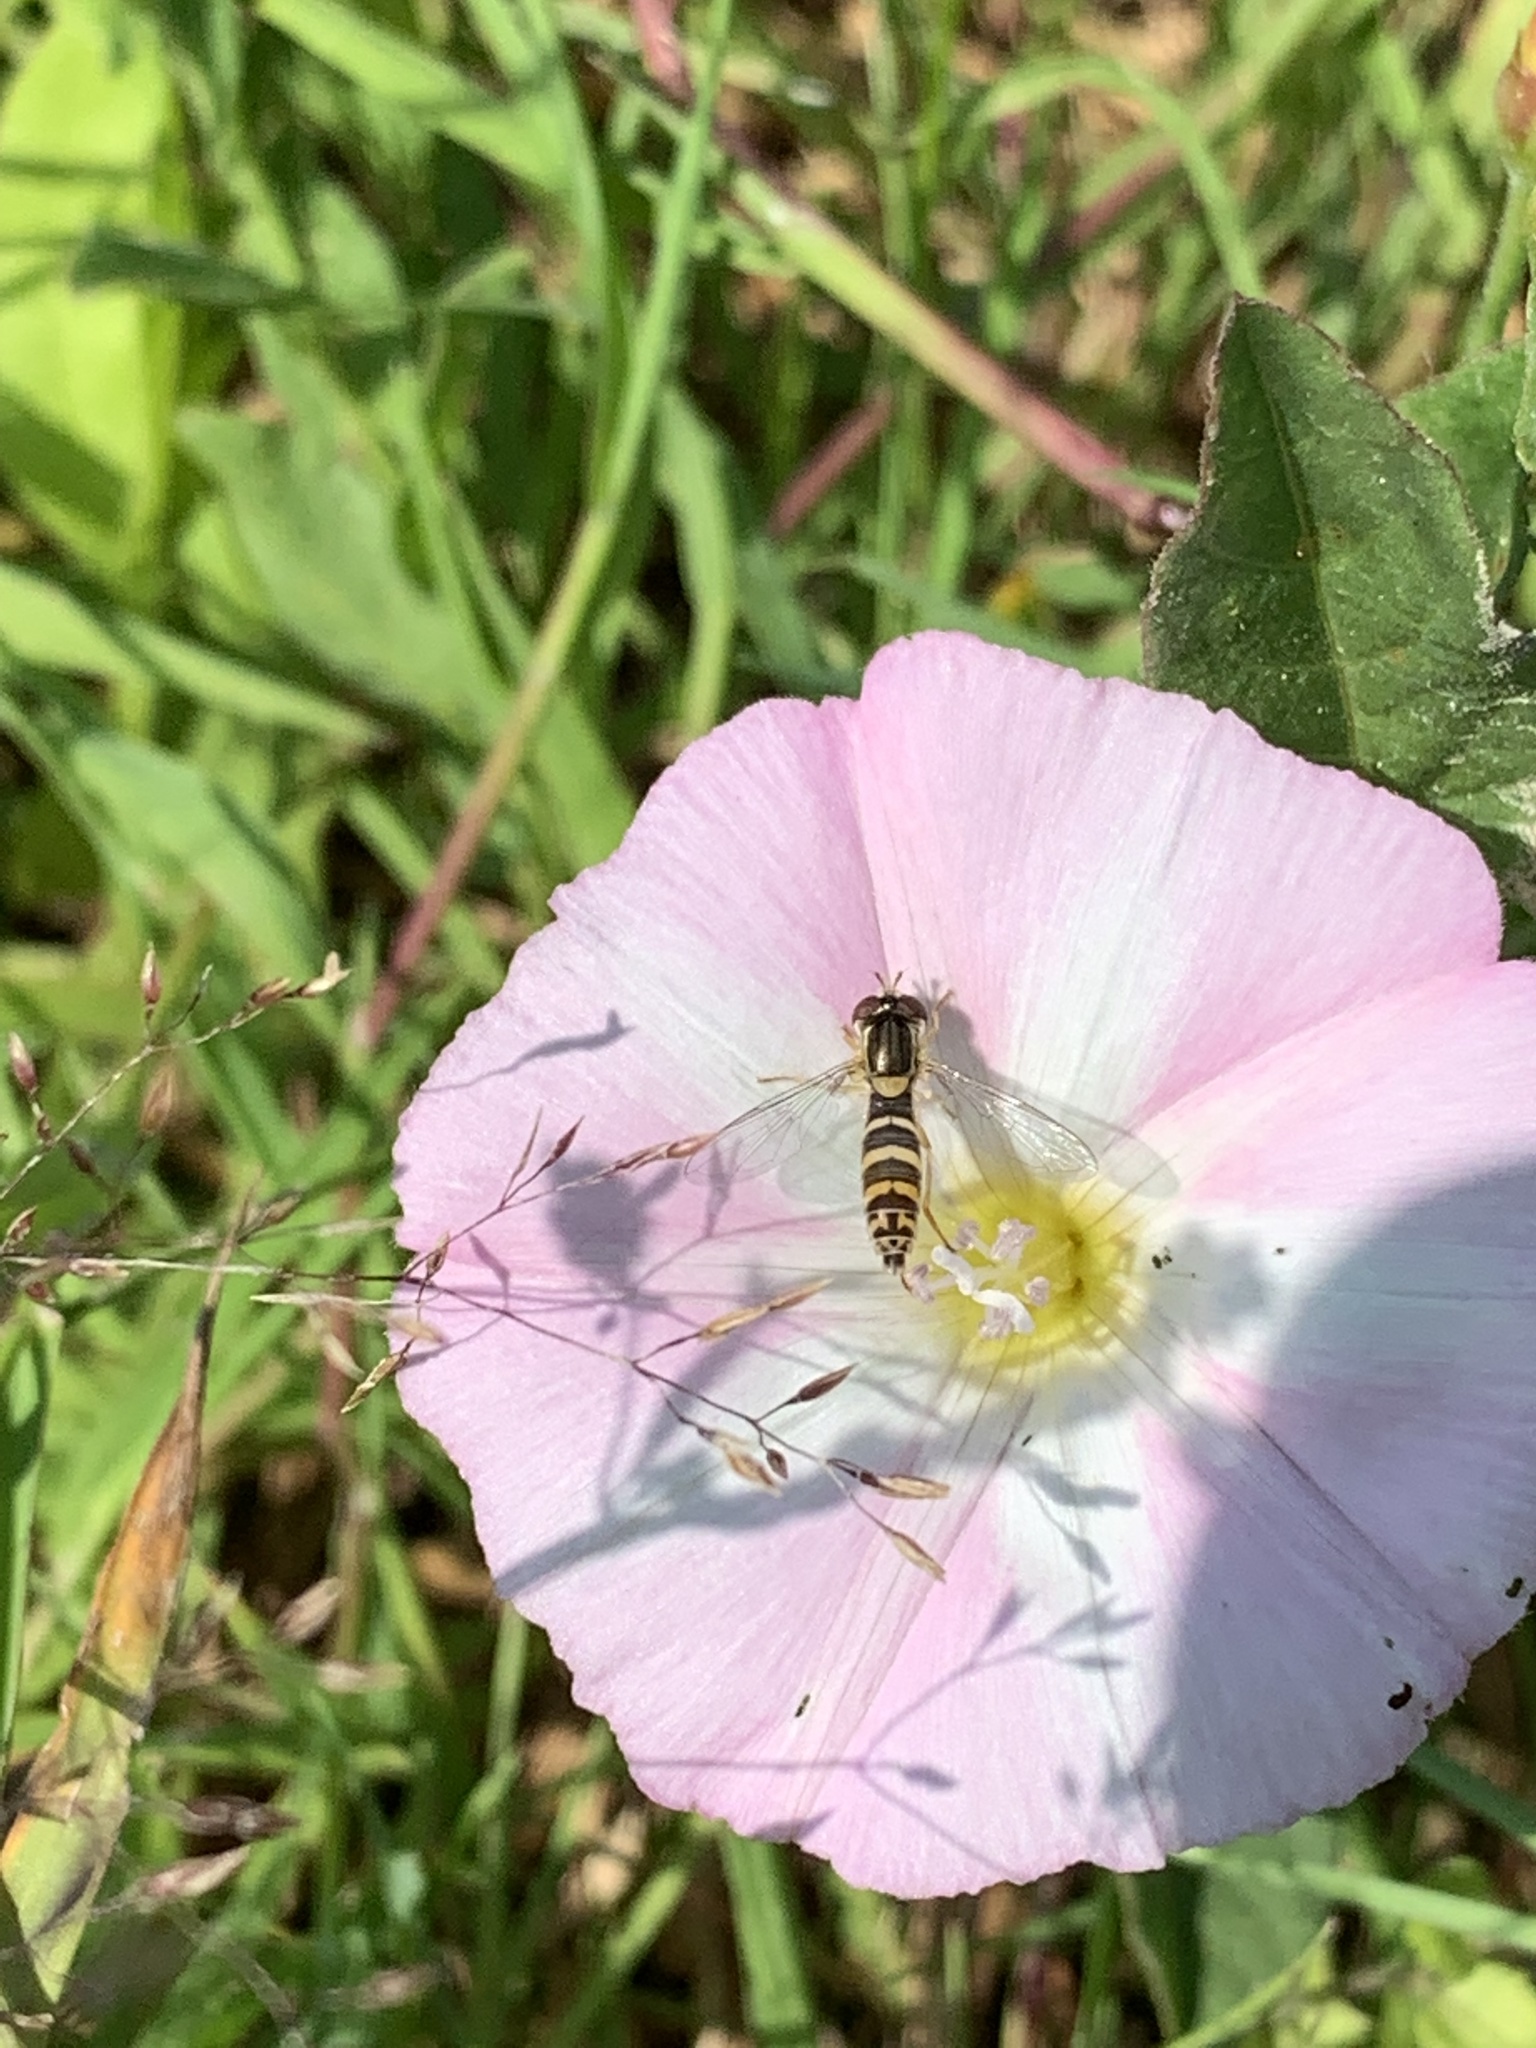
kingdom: Animalia
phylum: Arthropoda
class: Insecta
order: Diptera
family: Syrphidae
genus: Sphaerophoria
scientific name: Sphaerophoria
